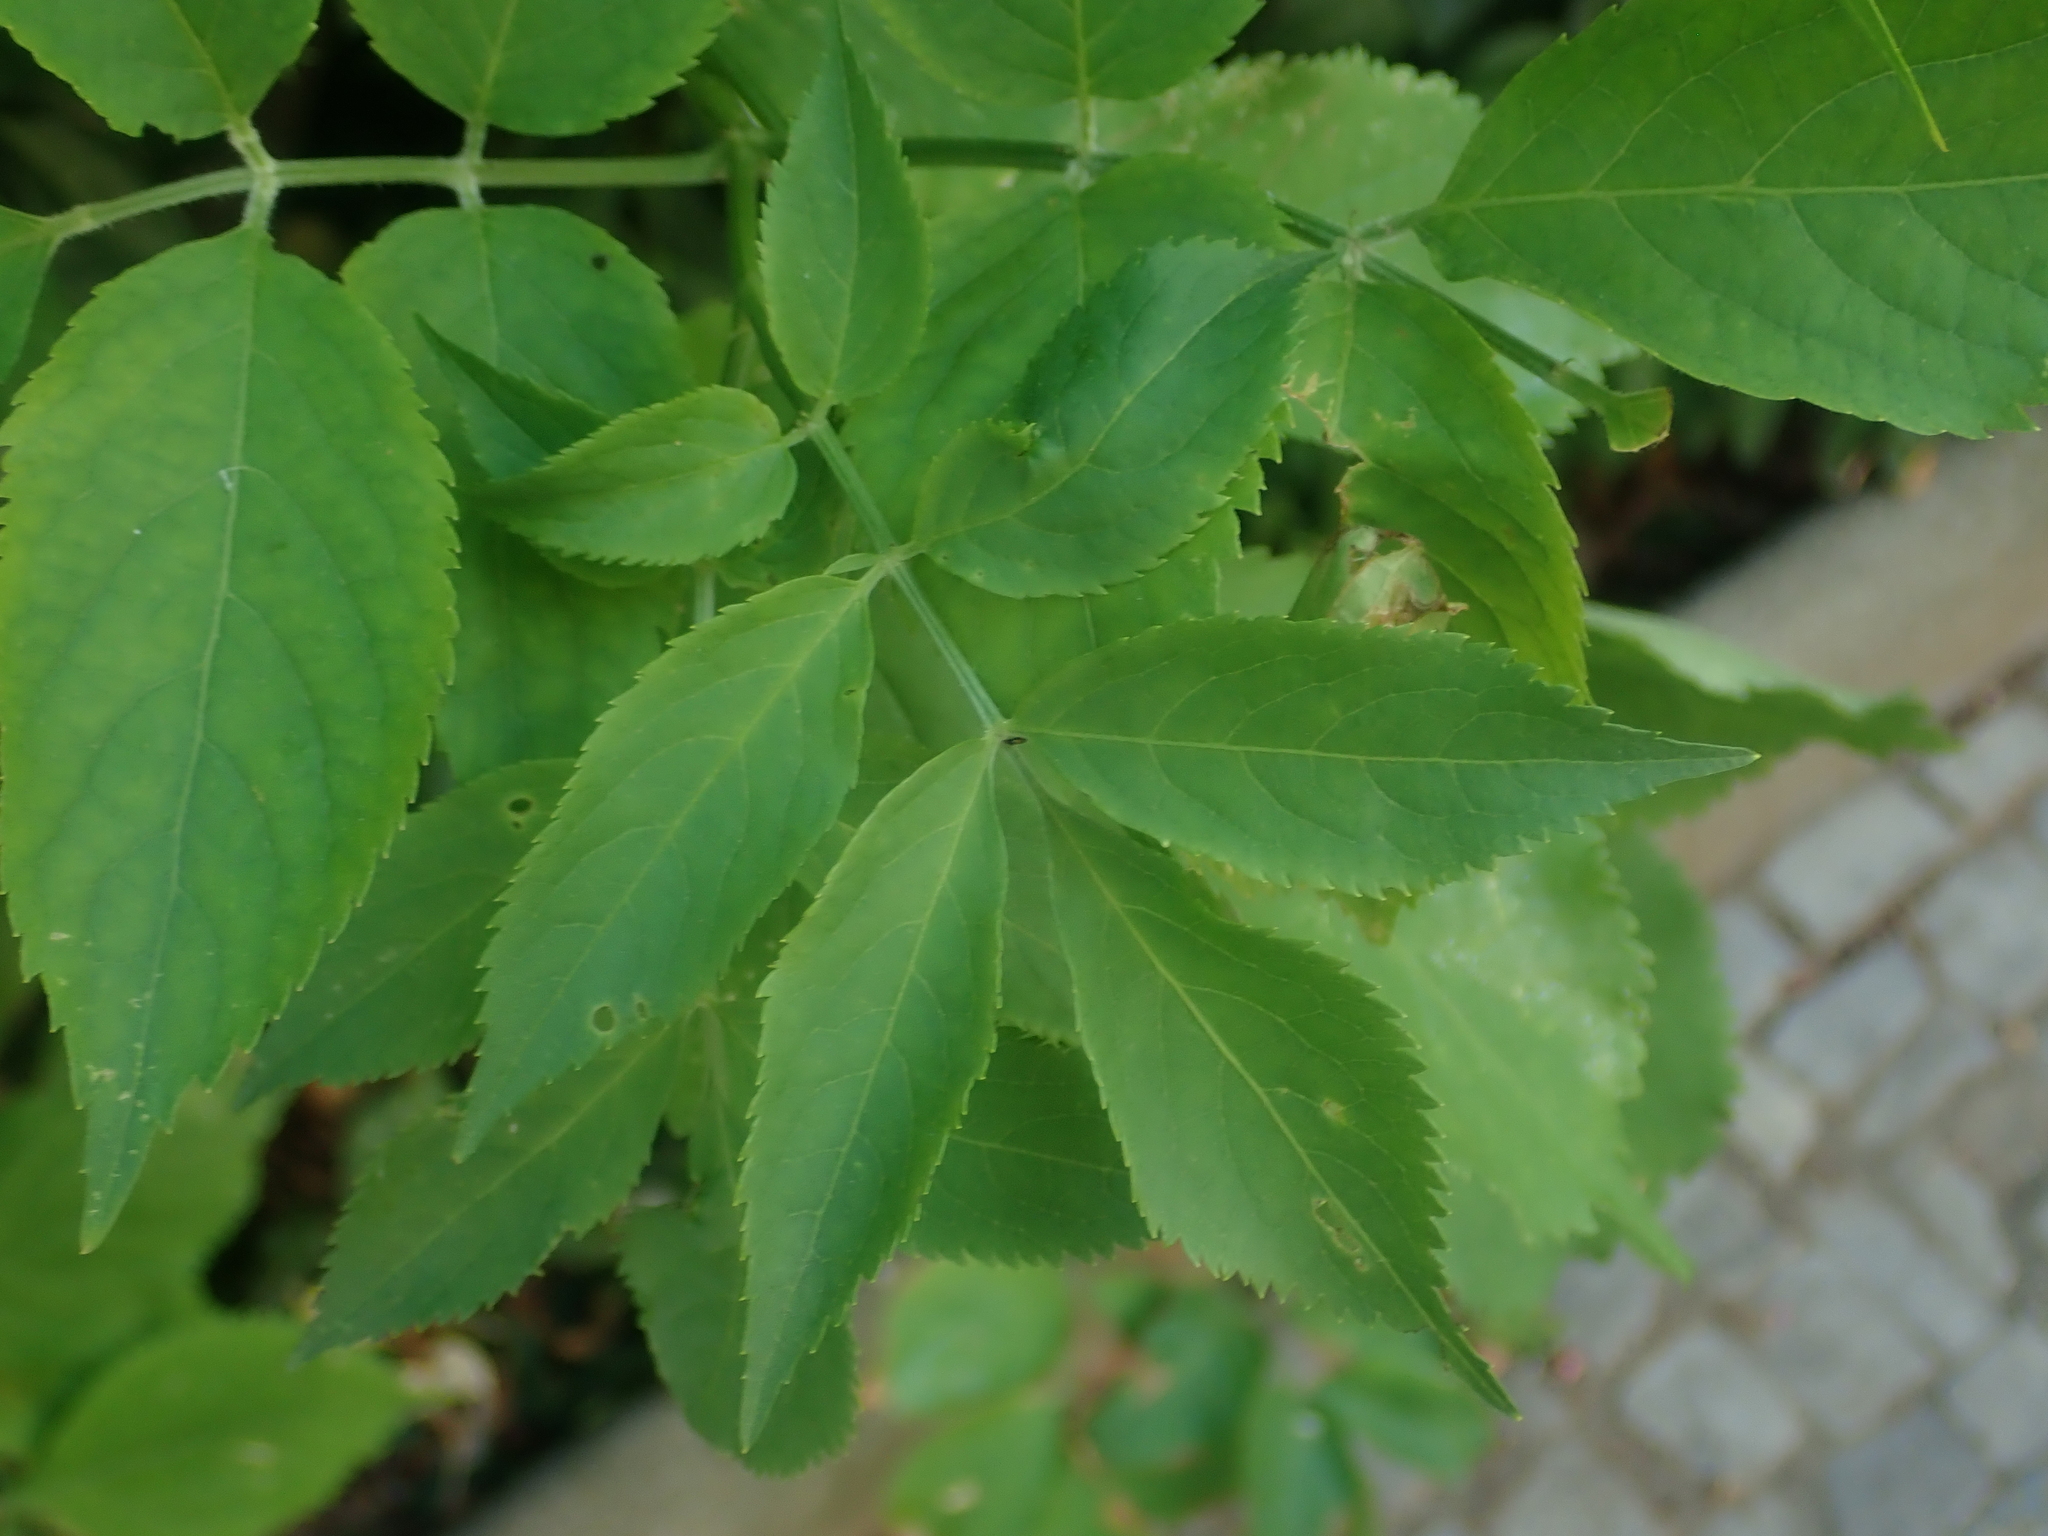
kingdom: Plantae
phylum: Tracheophyta
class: Magnoliopsida
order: Dipsacales
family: Viburnaceae
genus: Sambucus
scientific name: Sambucus nigra
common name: Elder
